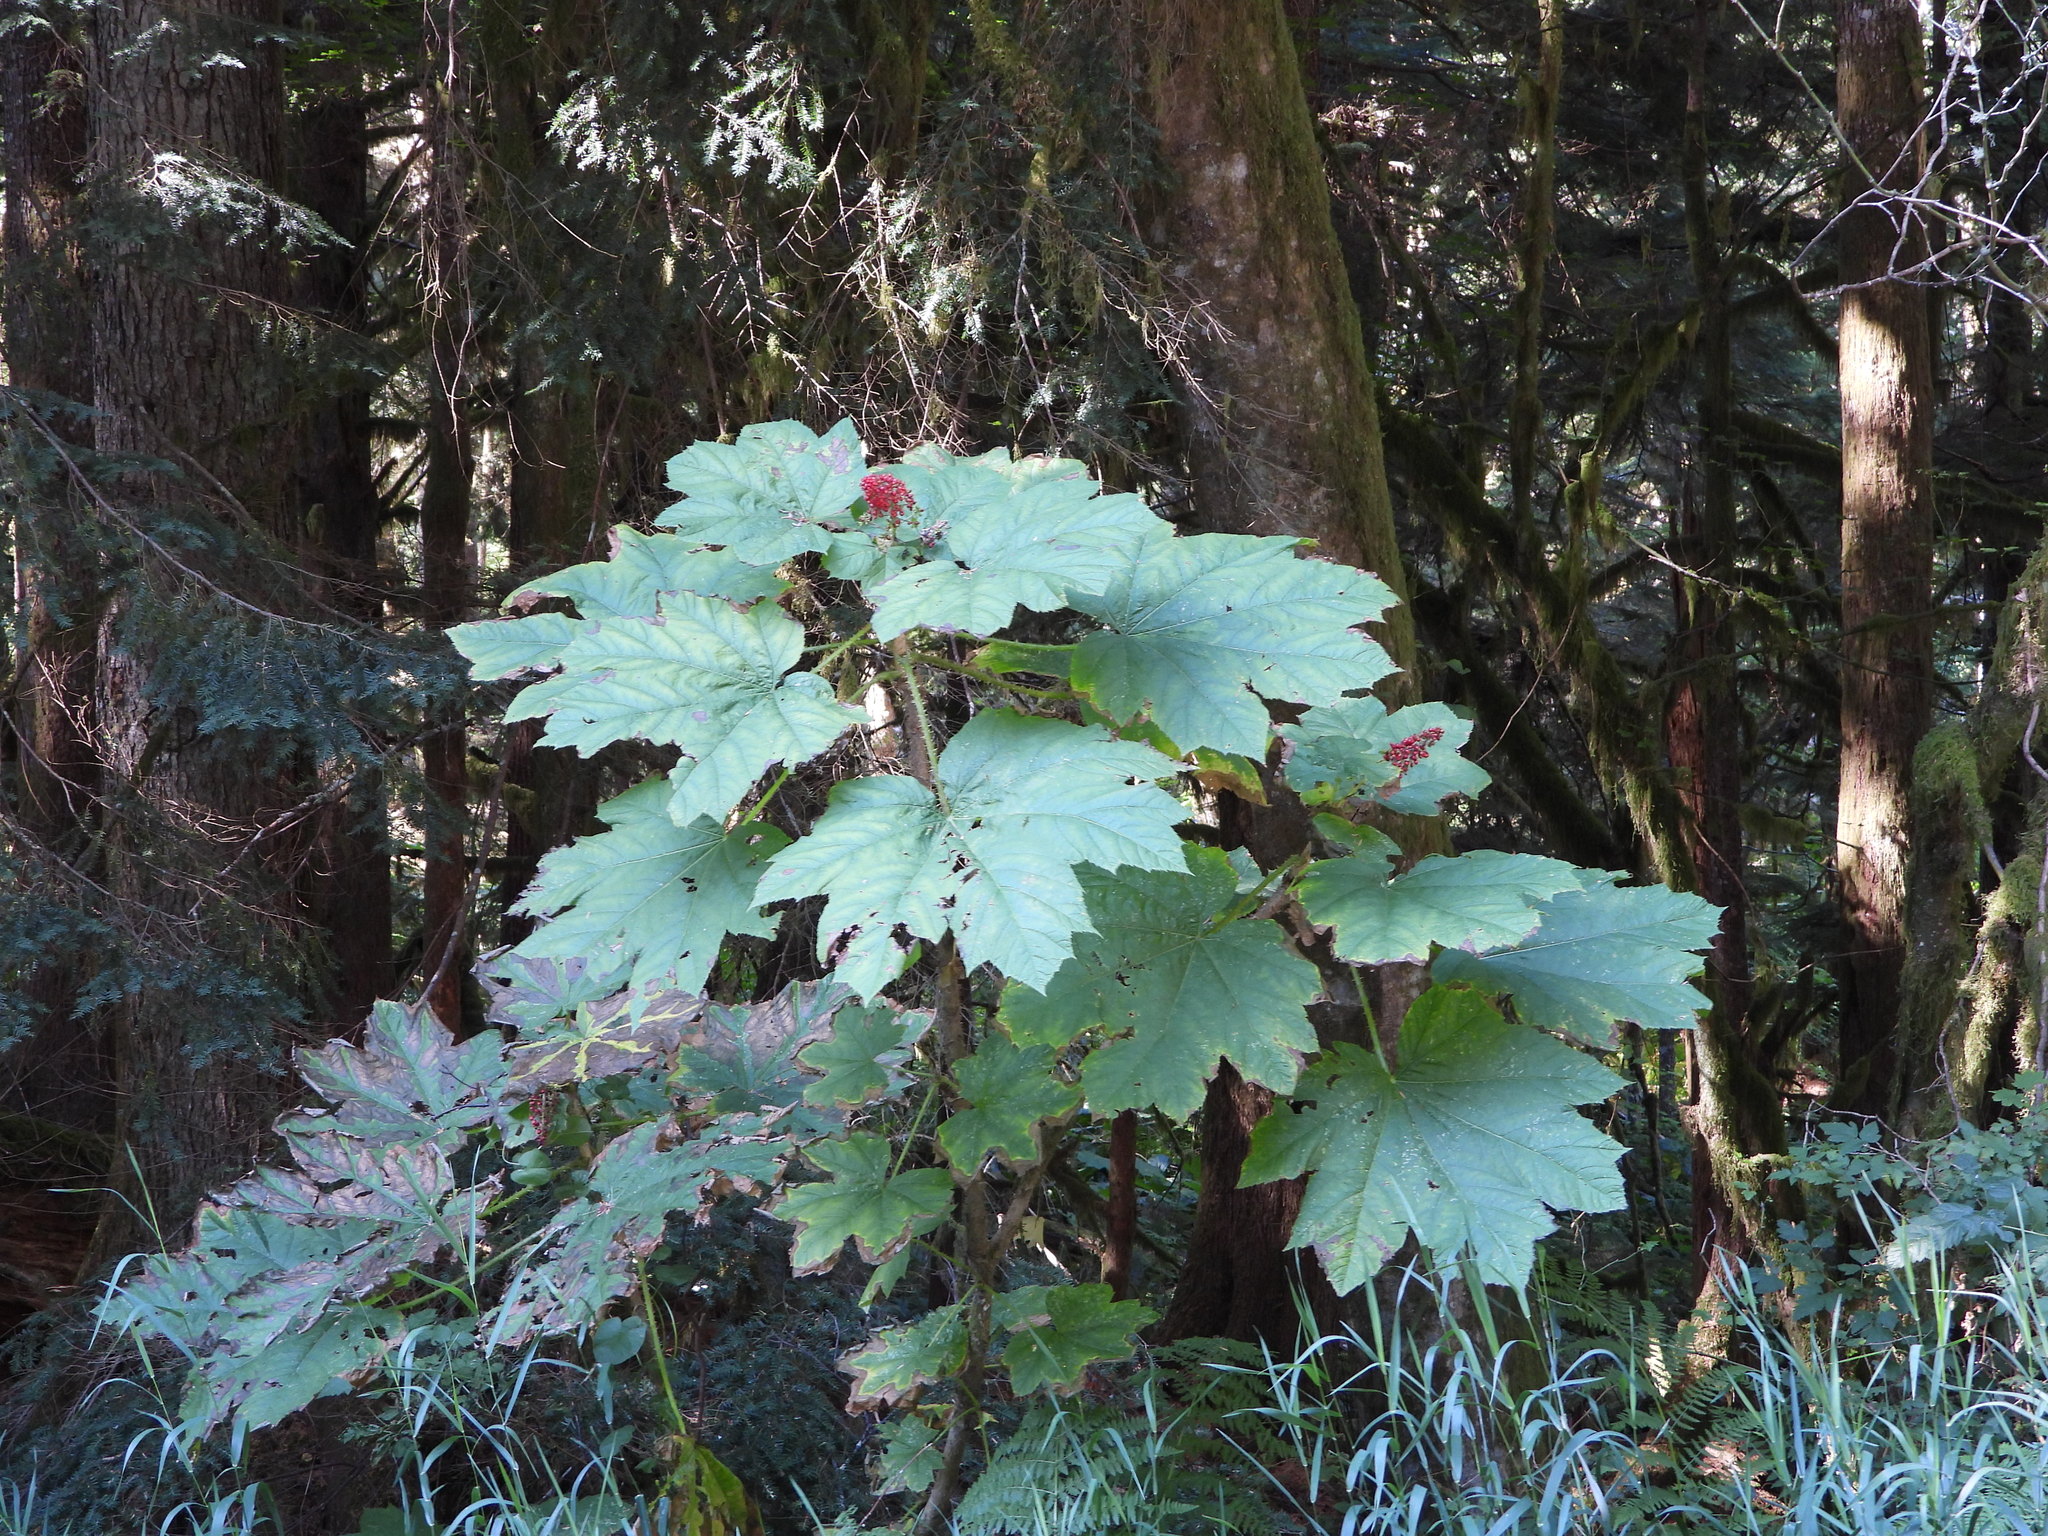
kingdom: Plantae
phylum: Tracheophyta
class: Magnoliopsida
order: Apiales
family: Araliaceae
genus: Oplopanax
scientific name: Oplopanax horridus
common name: Devil's walking-stick
